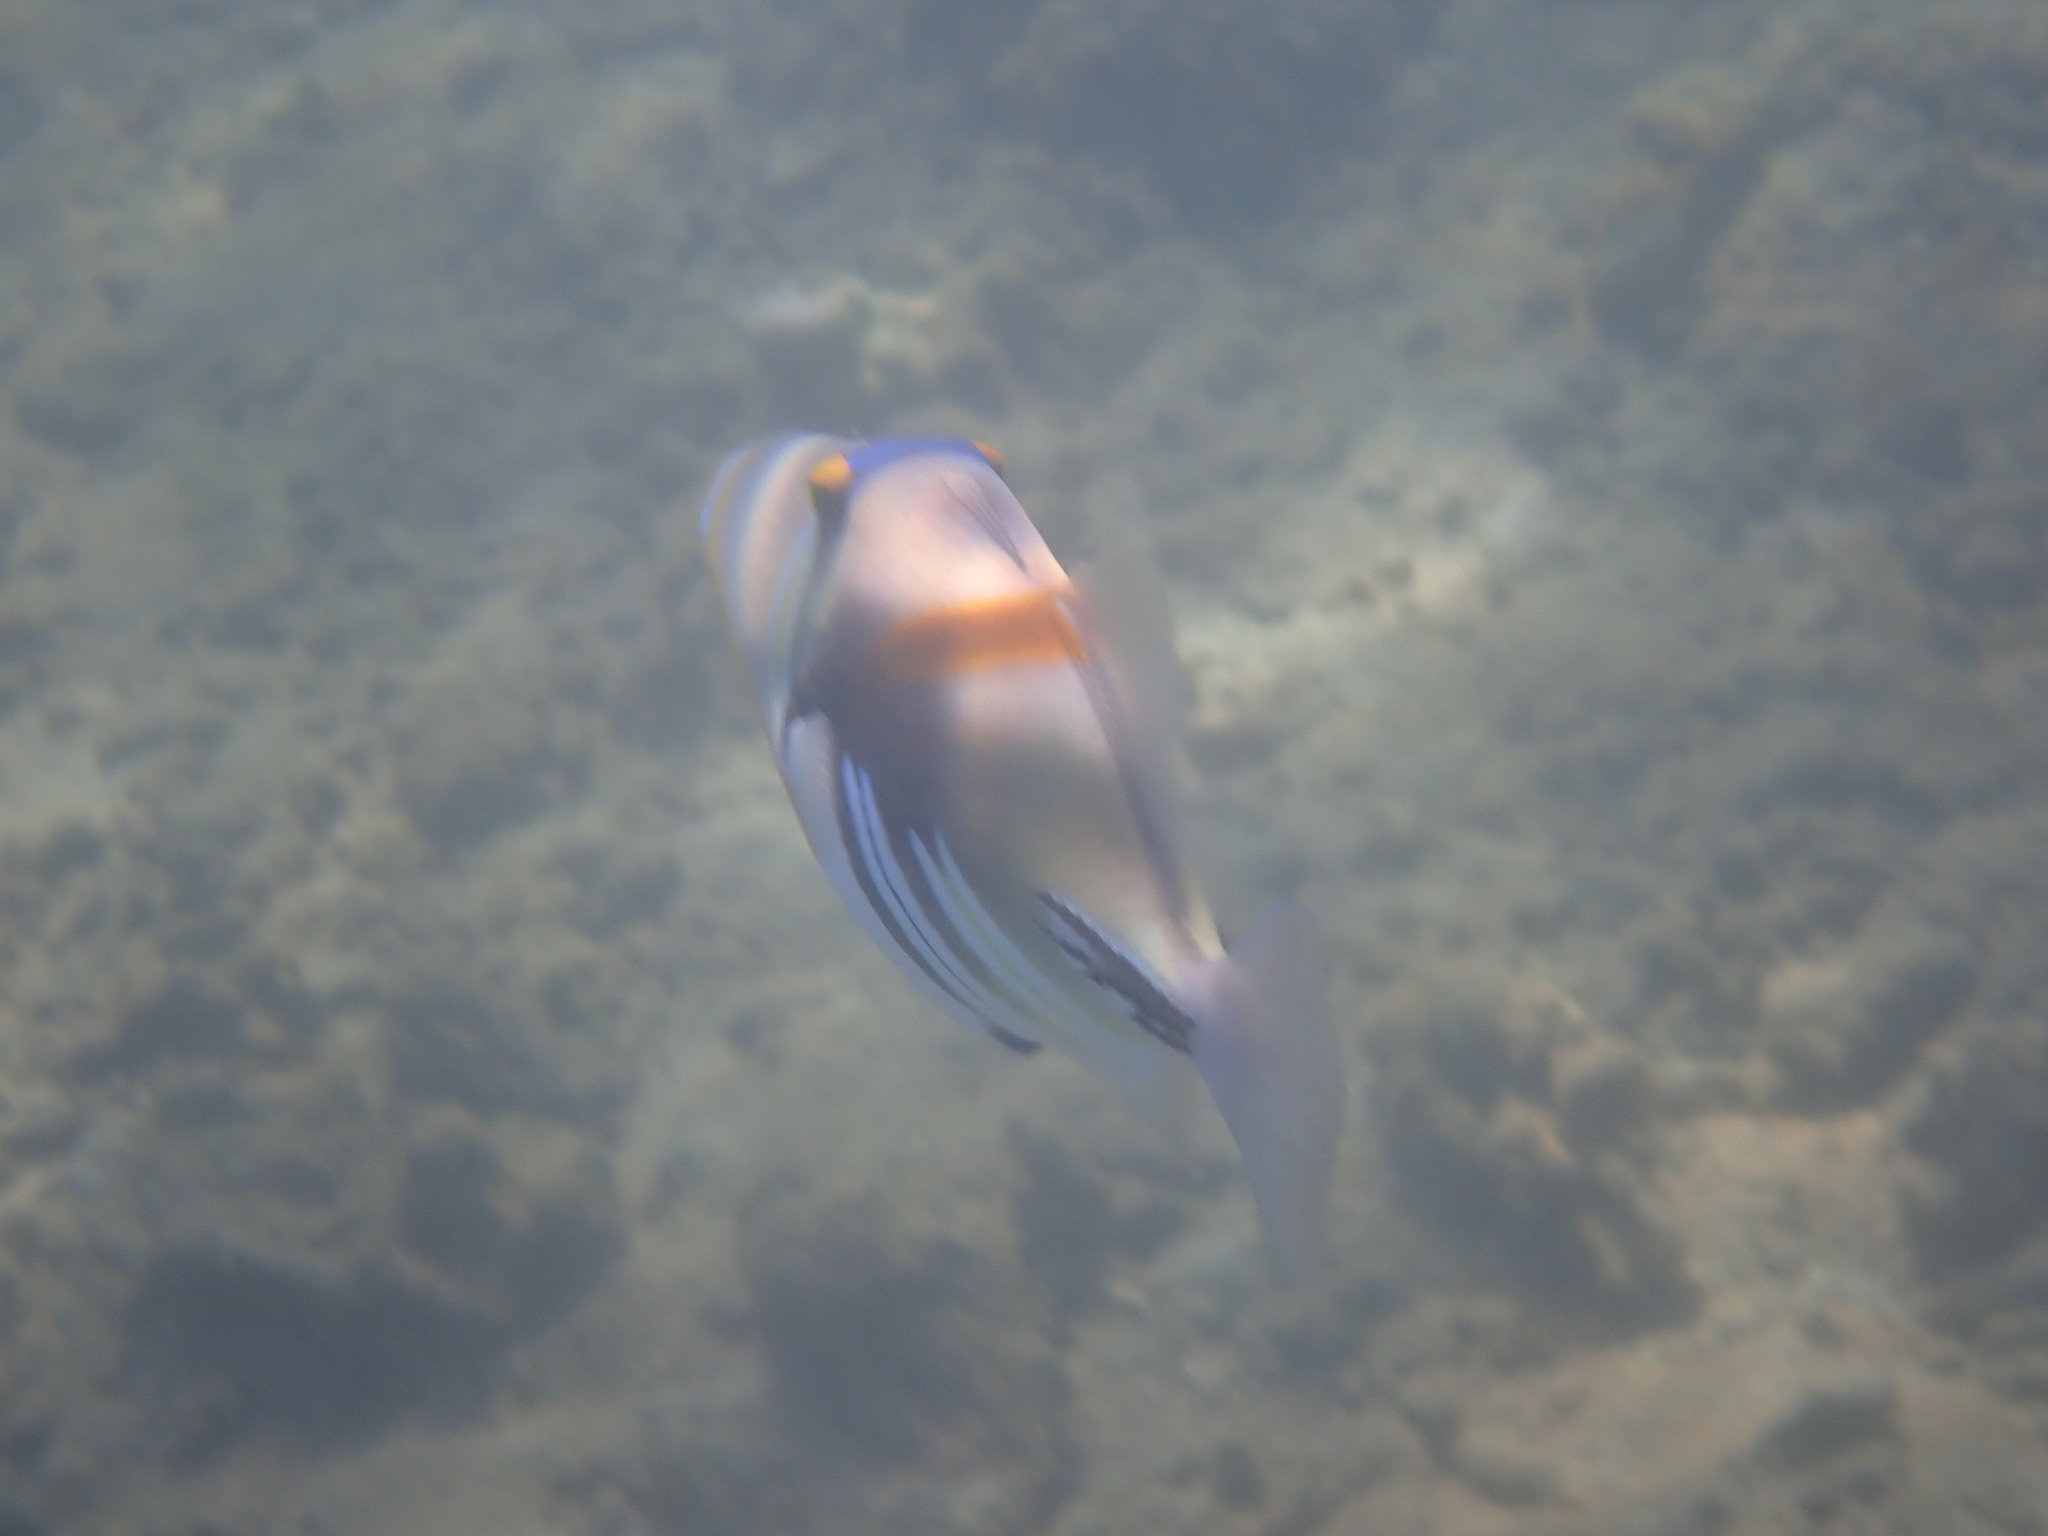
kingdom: Animalia
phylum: Chordata
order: Tetraodontiformes
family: Balistidae
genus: Rhinecanthus
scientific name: Rhinecanthus aculeatus
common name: White-banded triggerfish
